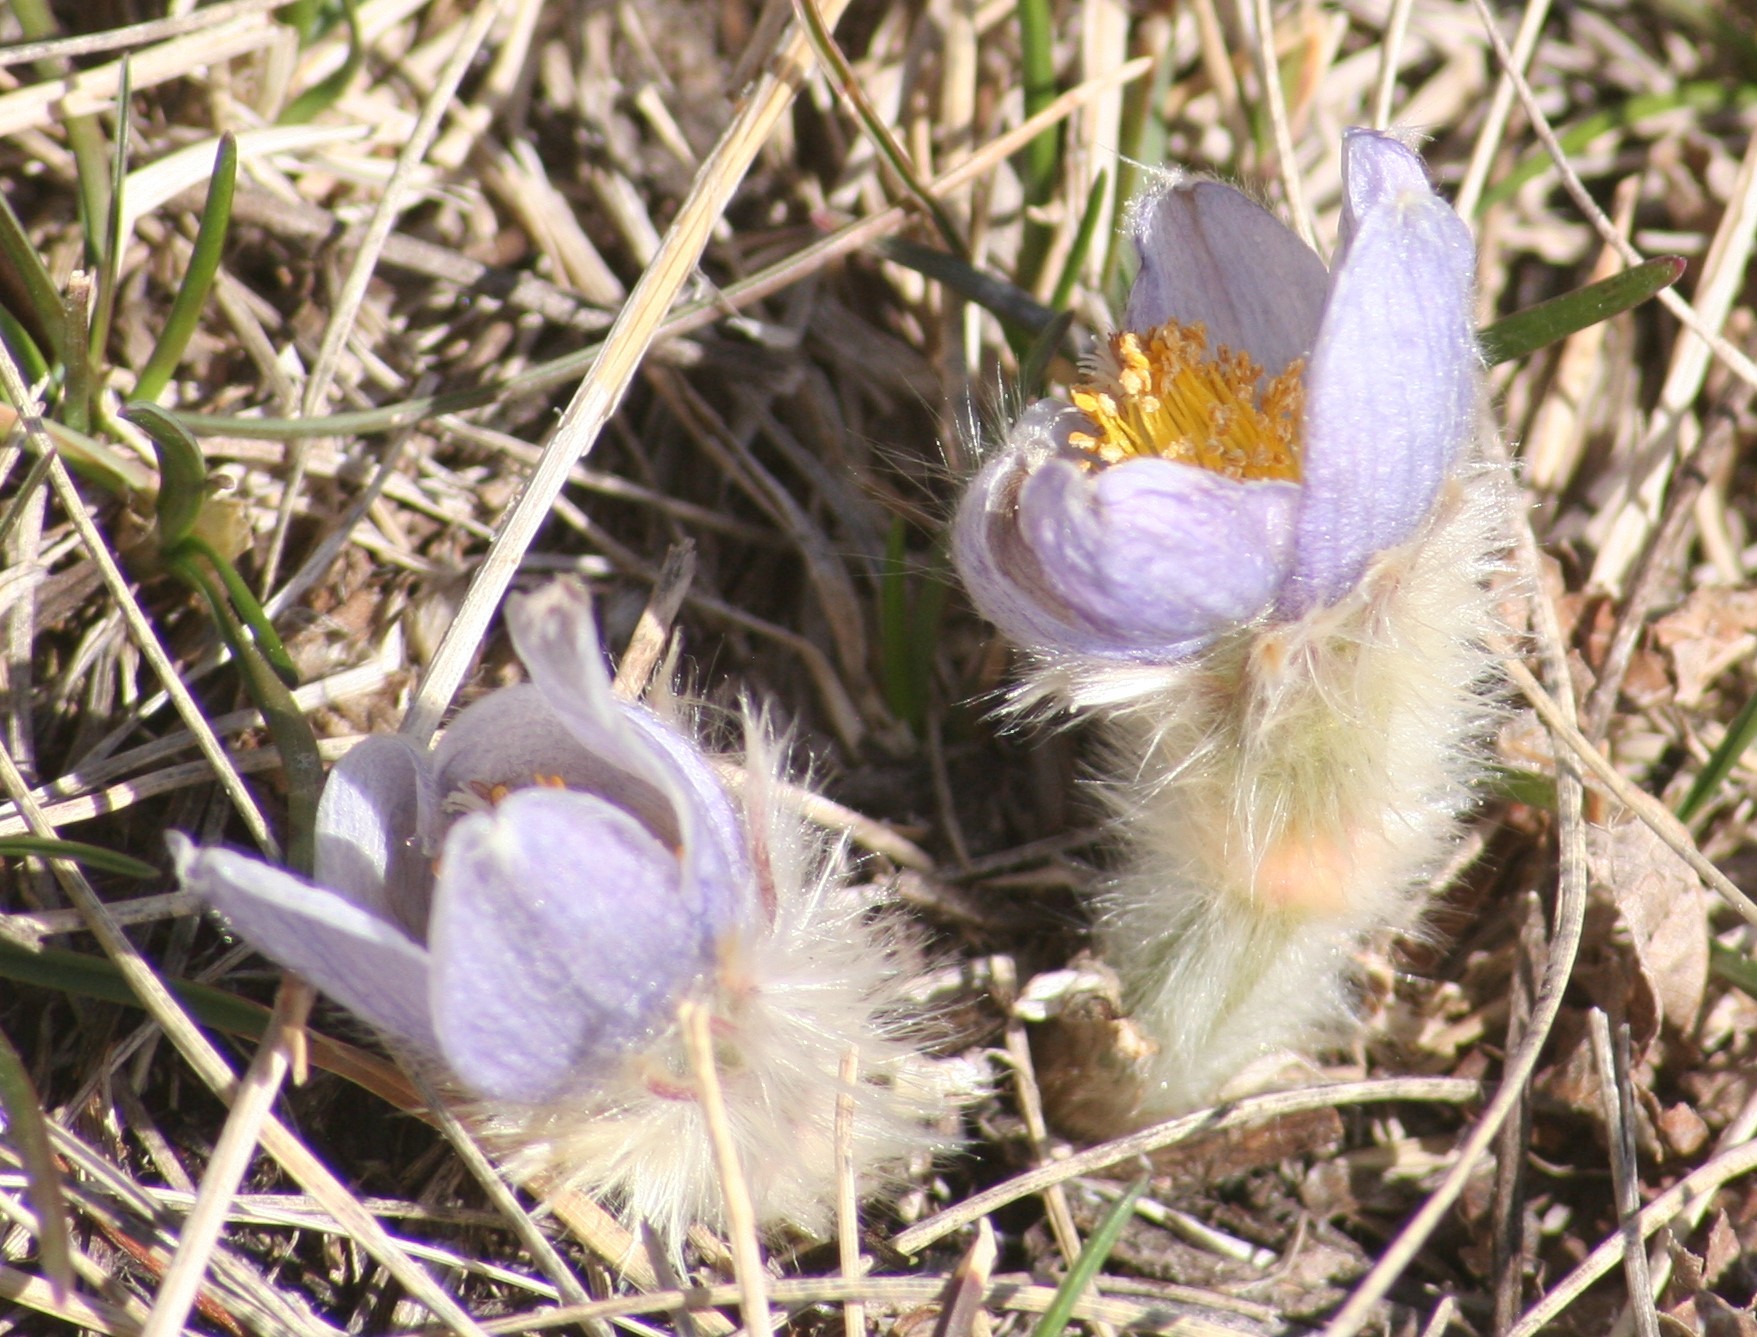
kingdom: Plantae
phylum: Tracheophyta
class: Magnoliopsida
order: Ranunculales
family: Ranunculaceae
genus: Pulsatilla
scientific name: Pulsatilla nuttalliana
